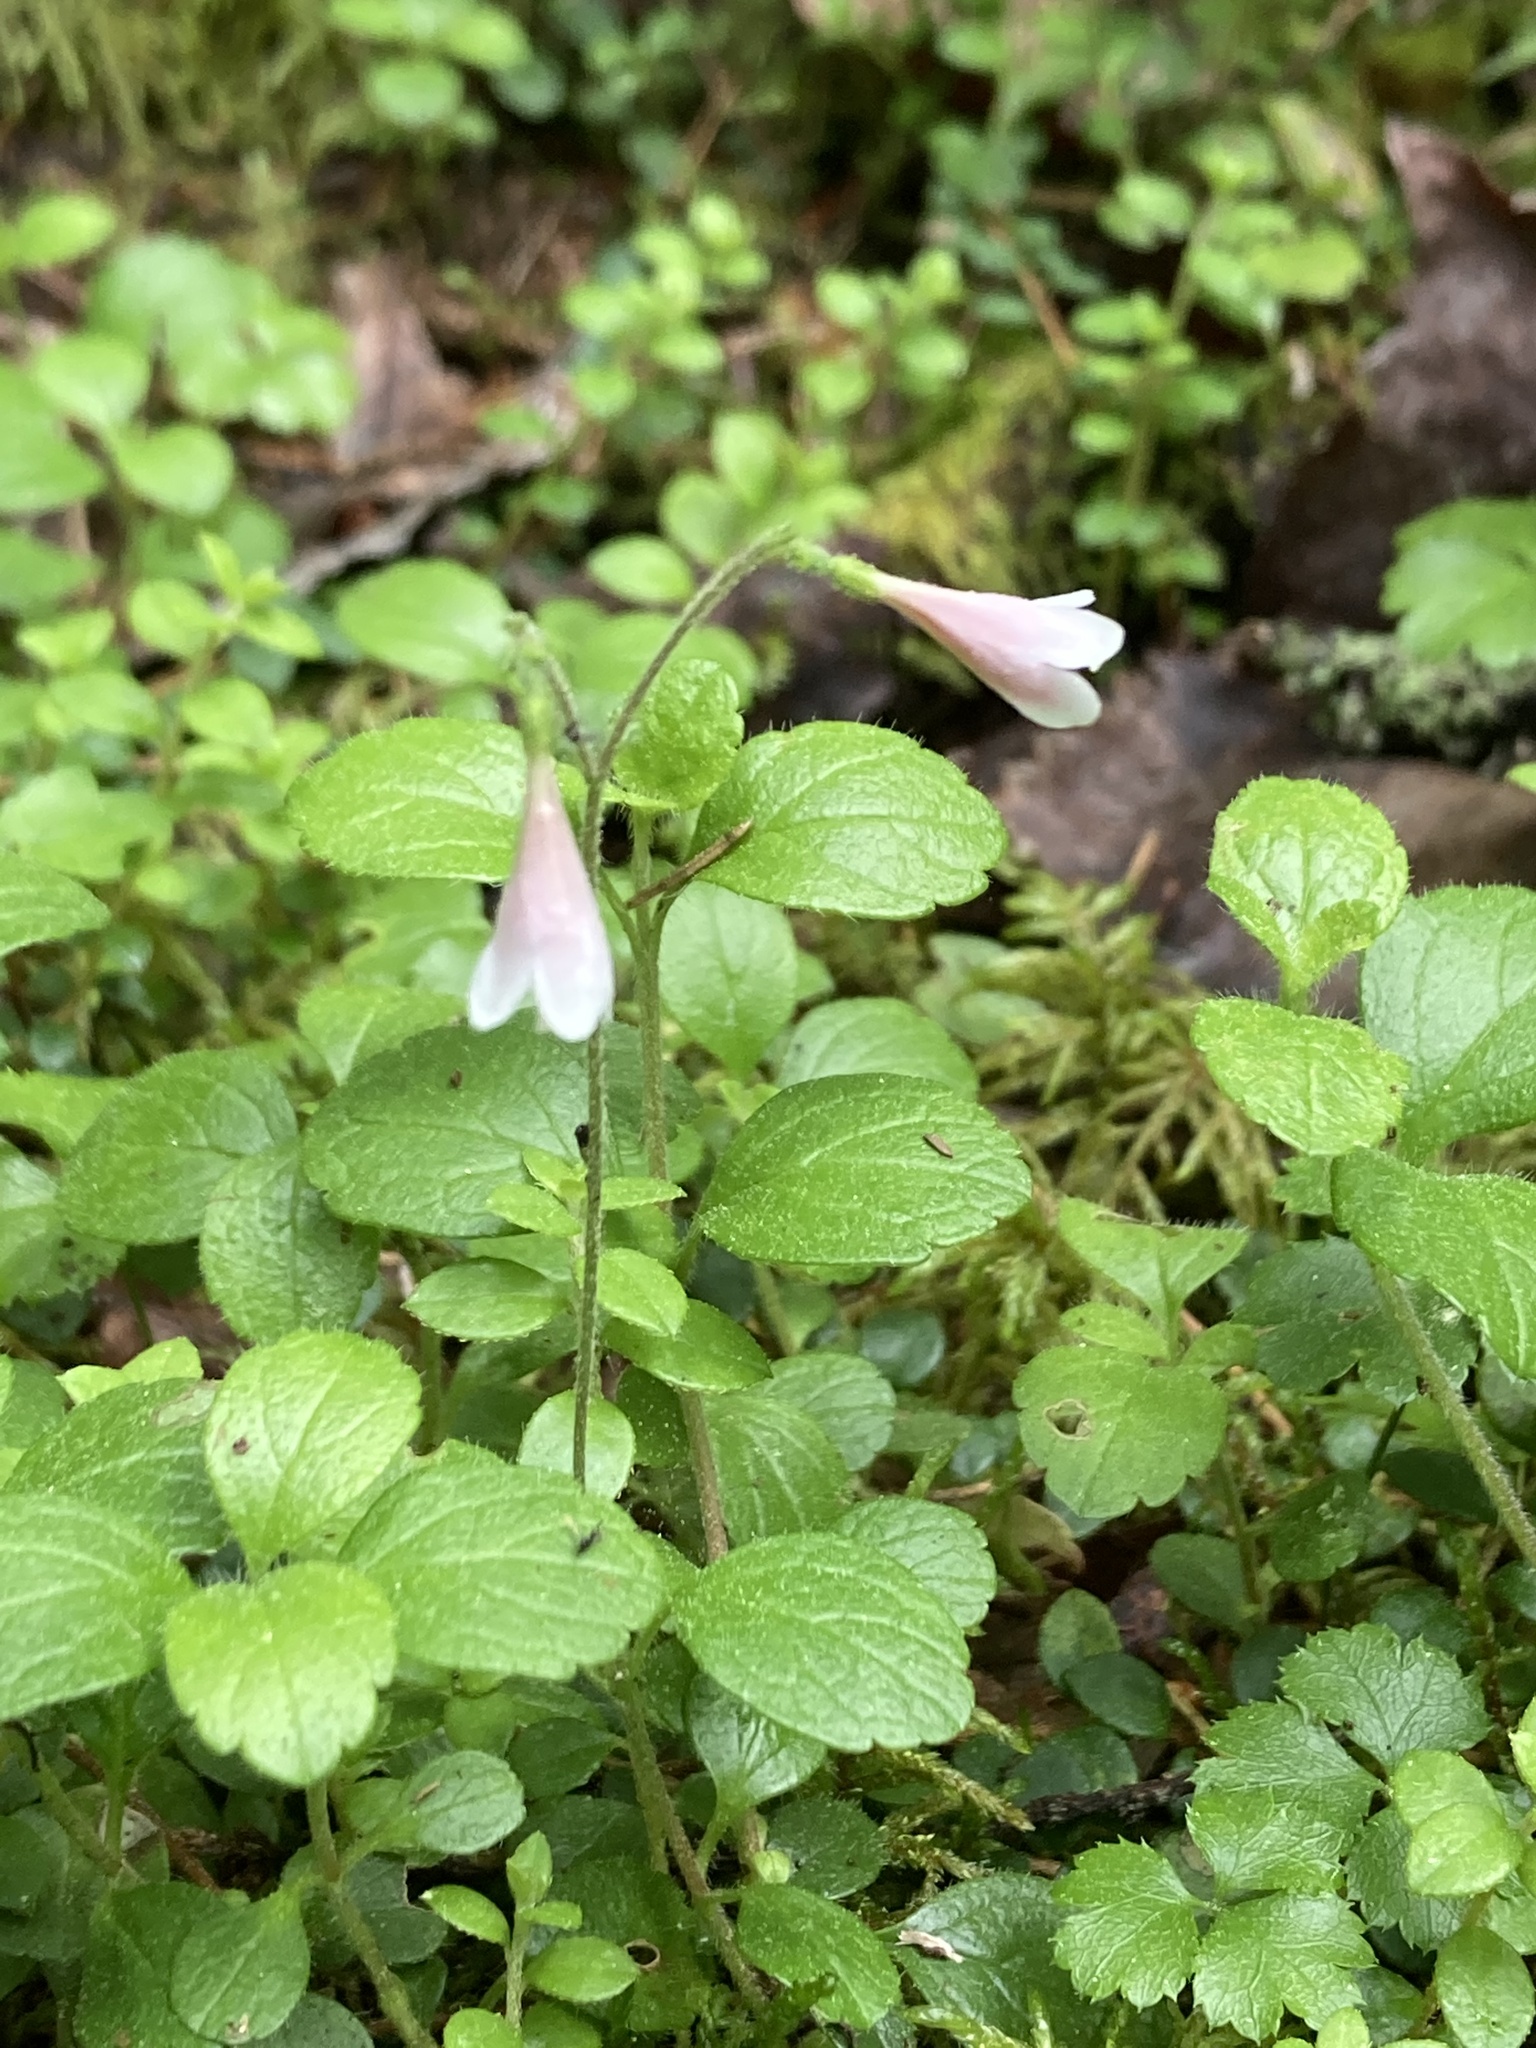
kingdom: Plantae
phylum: Tracheophyta
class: Magnoliopsida
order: Dipsacales
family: Caprifoliaceae
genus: Linnaea
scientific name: Linnaea borealis
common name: Twinflower
